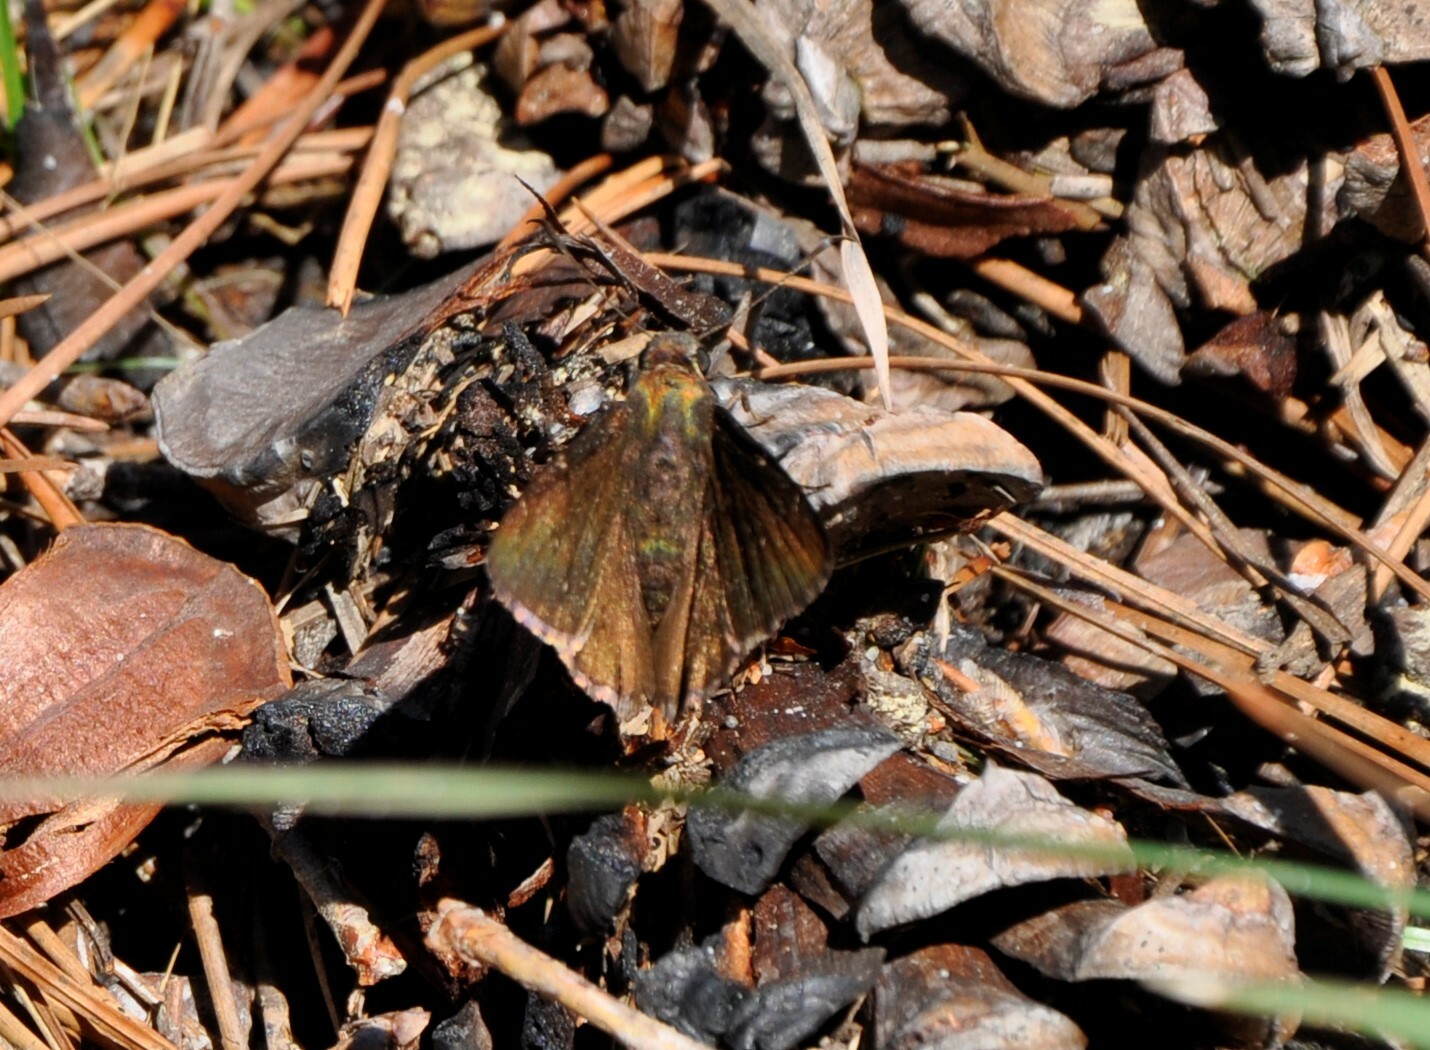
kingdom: Animalia
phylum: Arthropoda
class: Insecta
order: Lepidoptera
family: Hesperiidae
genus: Thorybes
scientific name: Thorybes pylades
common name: Northern cloudywing
